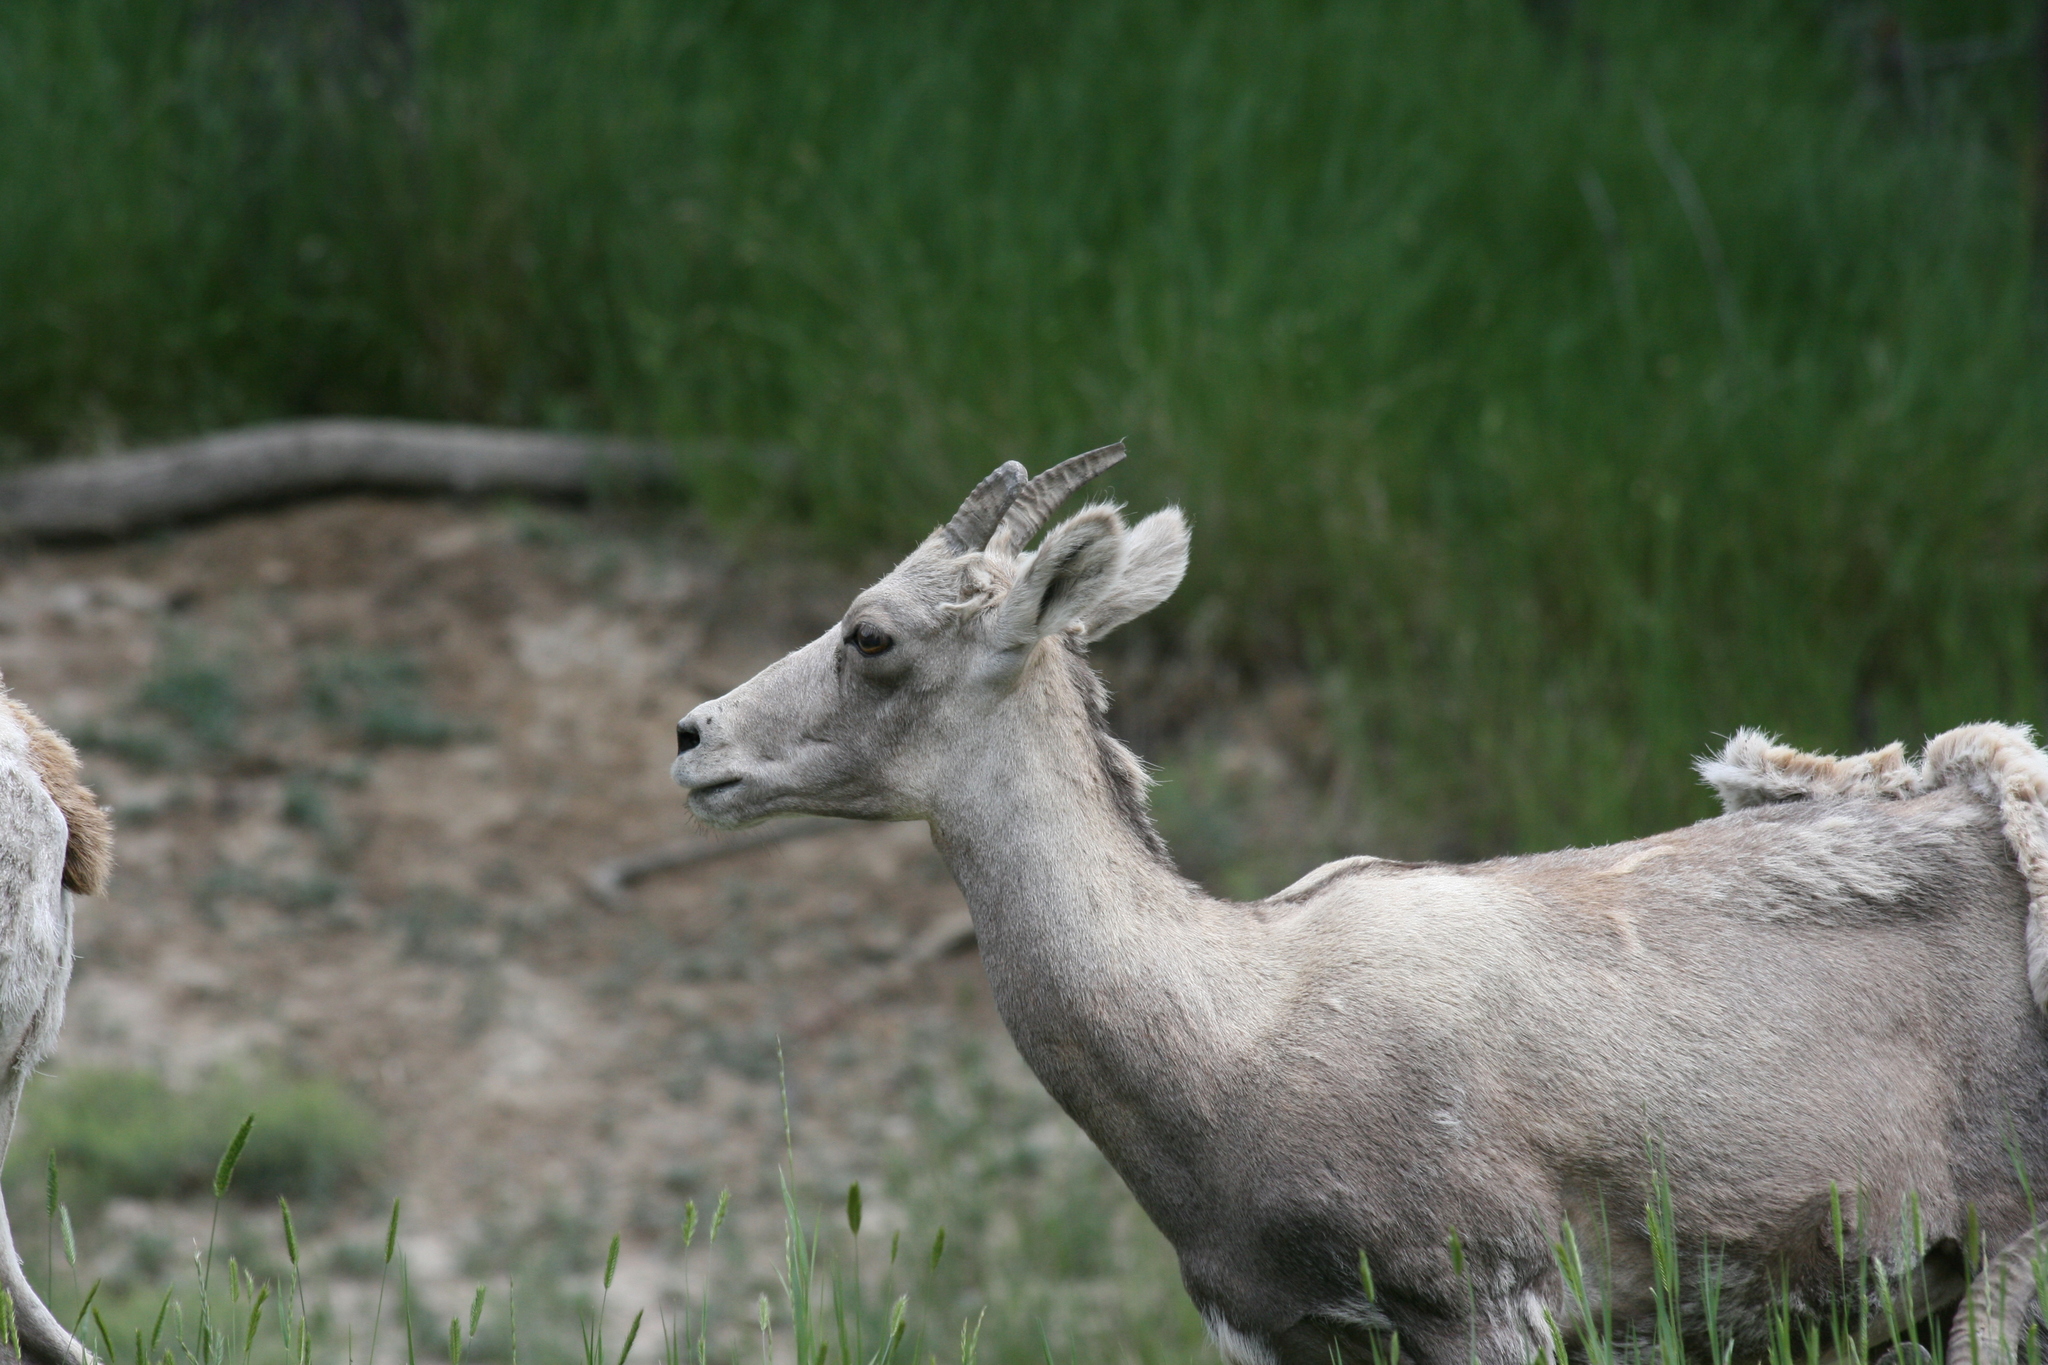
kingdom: Animalia
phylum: Chordata
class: Mammalia
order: Artiodactyla
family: Bovidae
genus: Ovis
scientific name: Ovis canadensis
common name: Bighorn sheep
